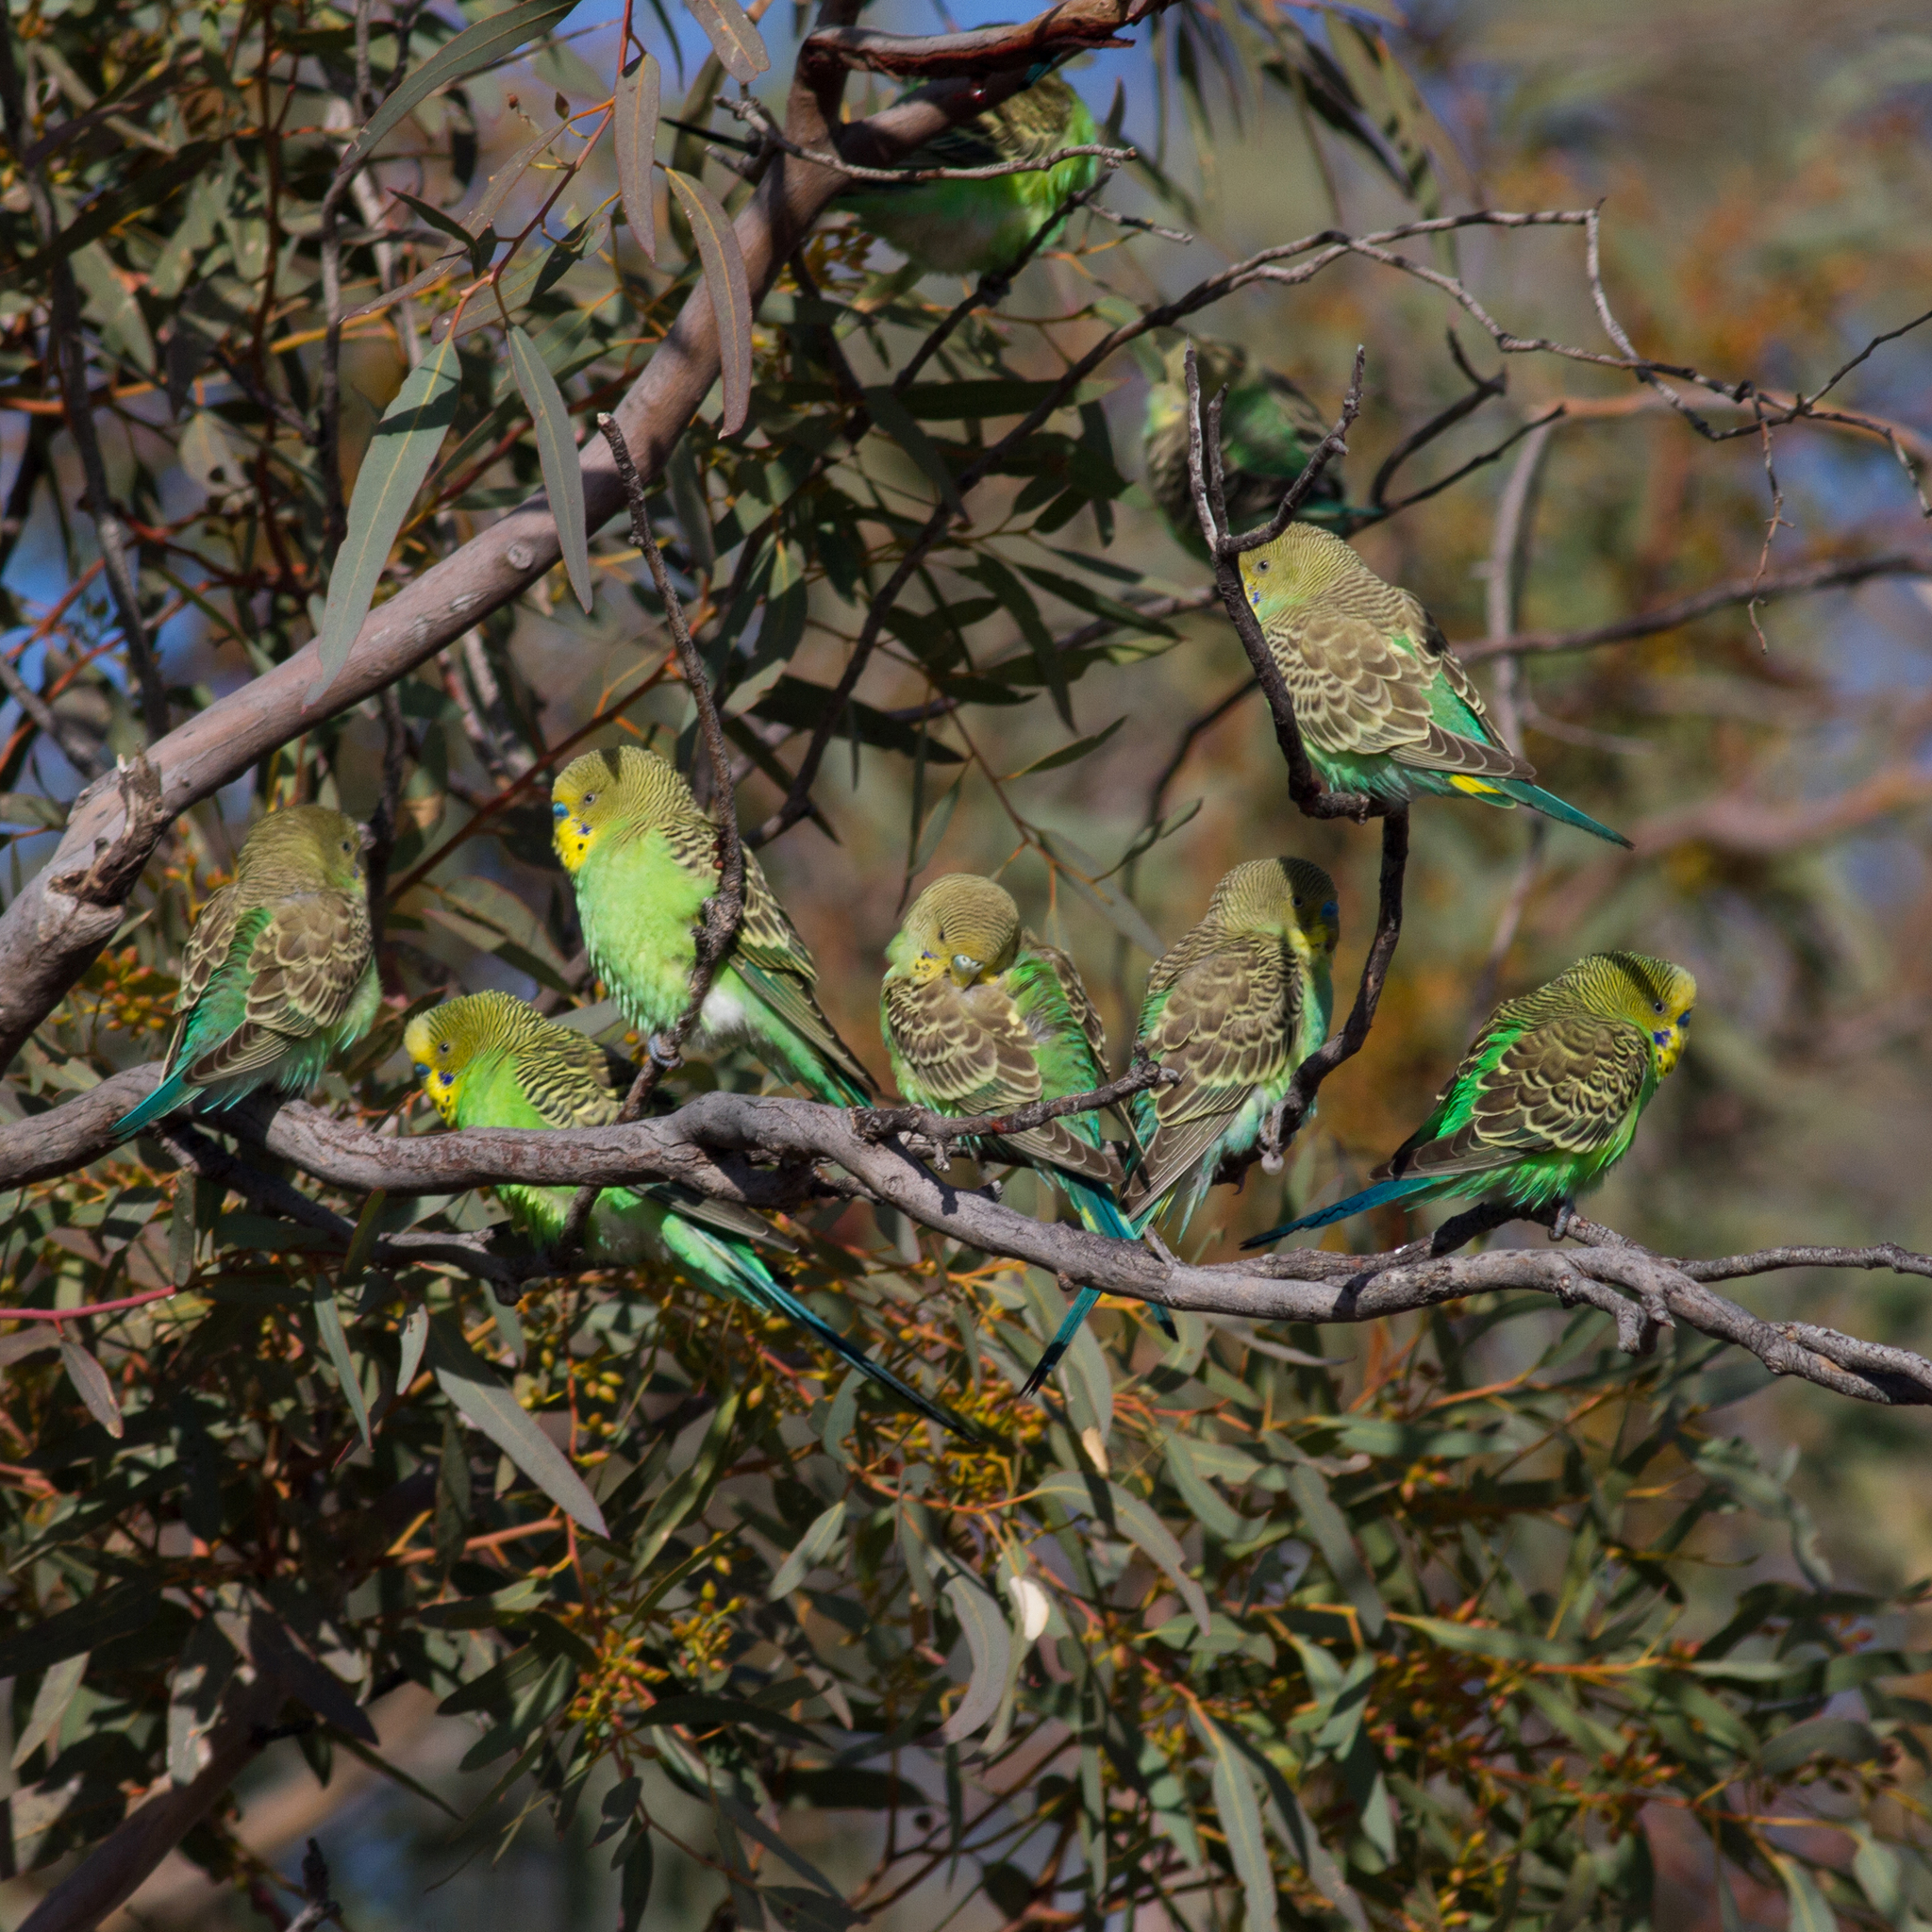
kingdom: Animalia
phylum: Chordata
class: Aves
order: Psittaciformes
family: Psittacidae
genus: Melopsittacus
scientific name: Melopsittacus undulatus
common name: Budgerigar
